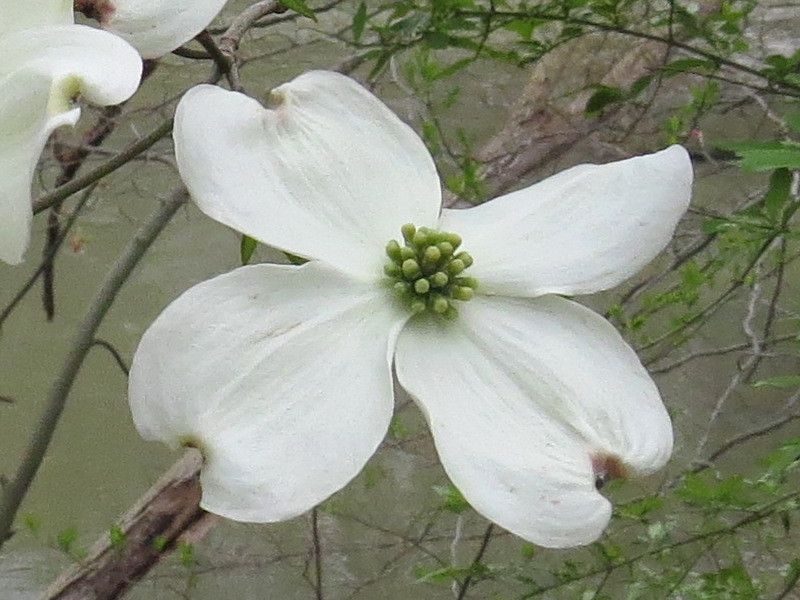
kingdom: Plantae
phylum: Tracheophyta
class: Magnoliopsida
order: Cornales
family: Cornaceae
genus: Cornus
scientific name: Cornus florida
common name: Flowering dogwood
